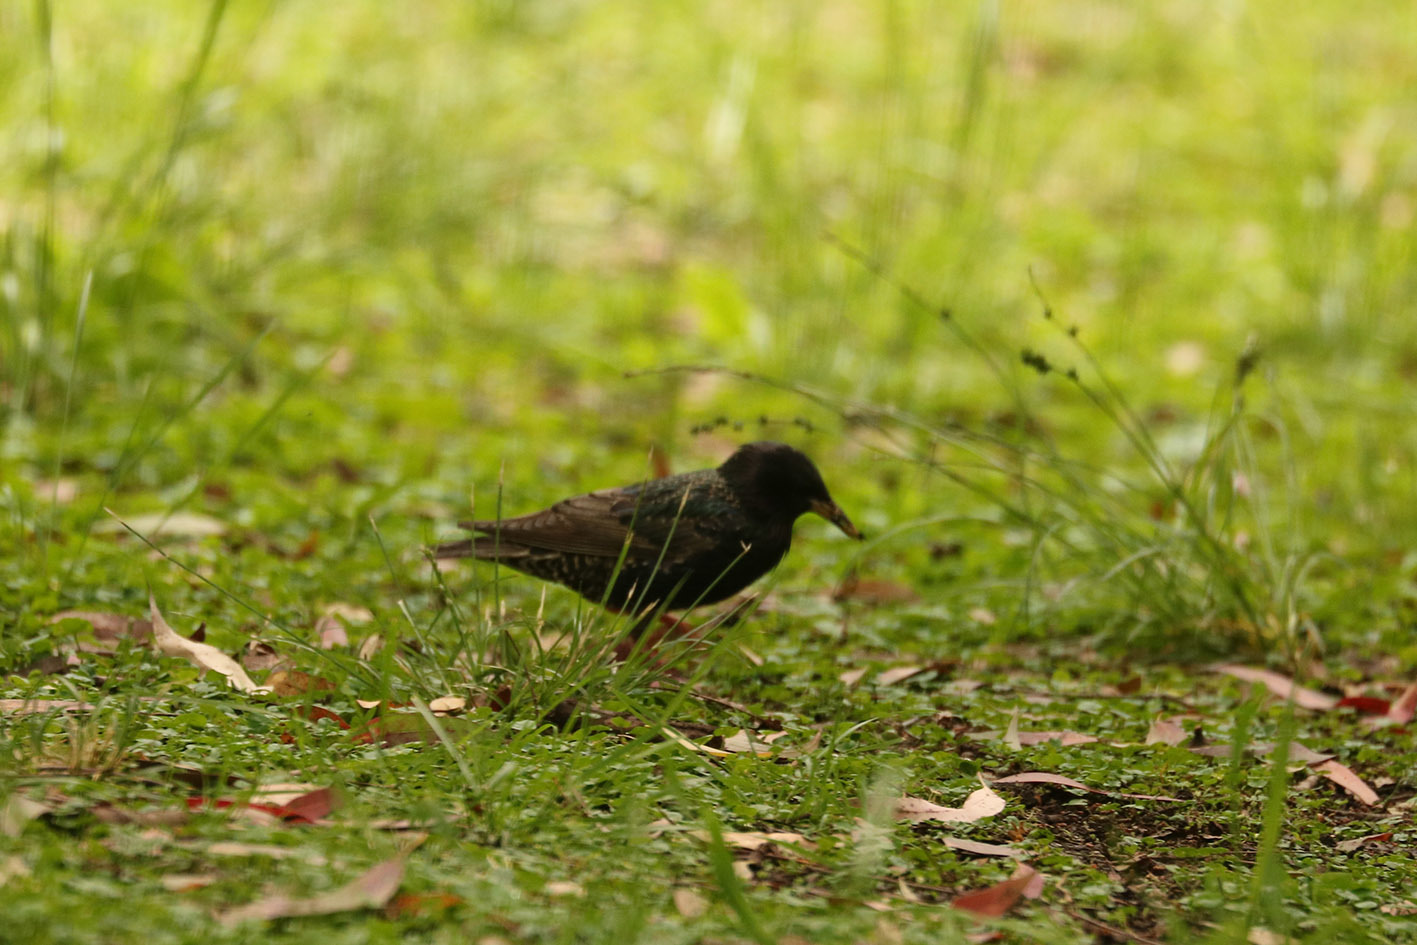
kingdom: Animalia
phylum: Chordata
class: Aves
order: Passeriformes
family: Sturnidae
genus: Sturnus
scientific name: Sturnus vulgaris
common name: Common starling
